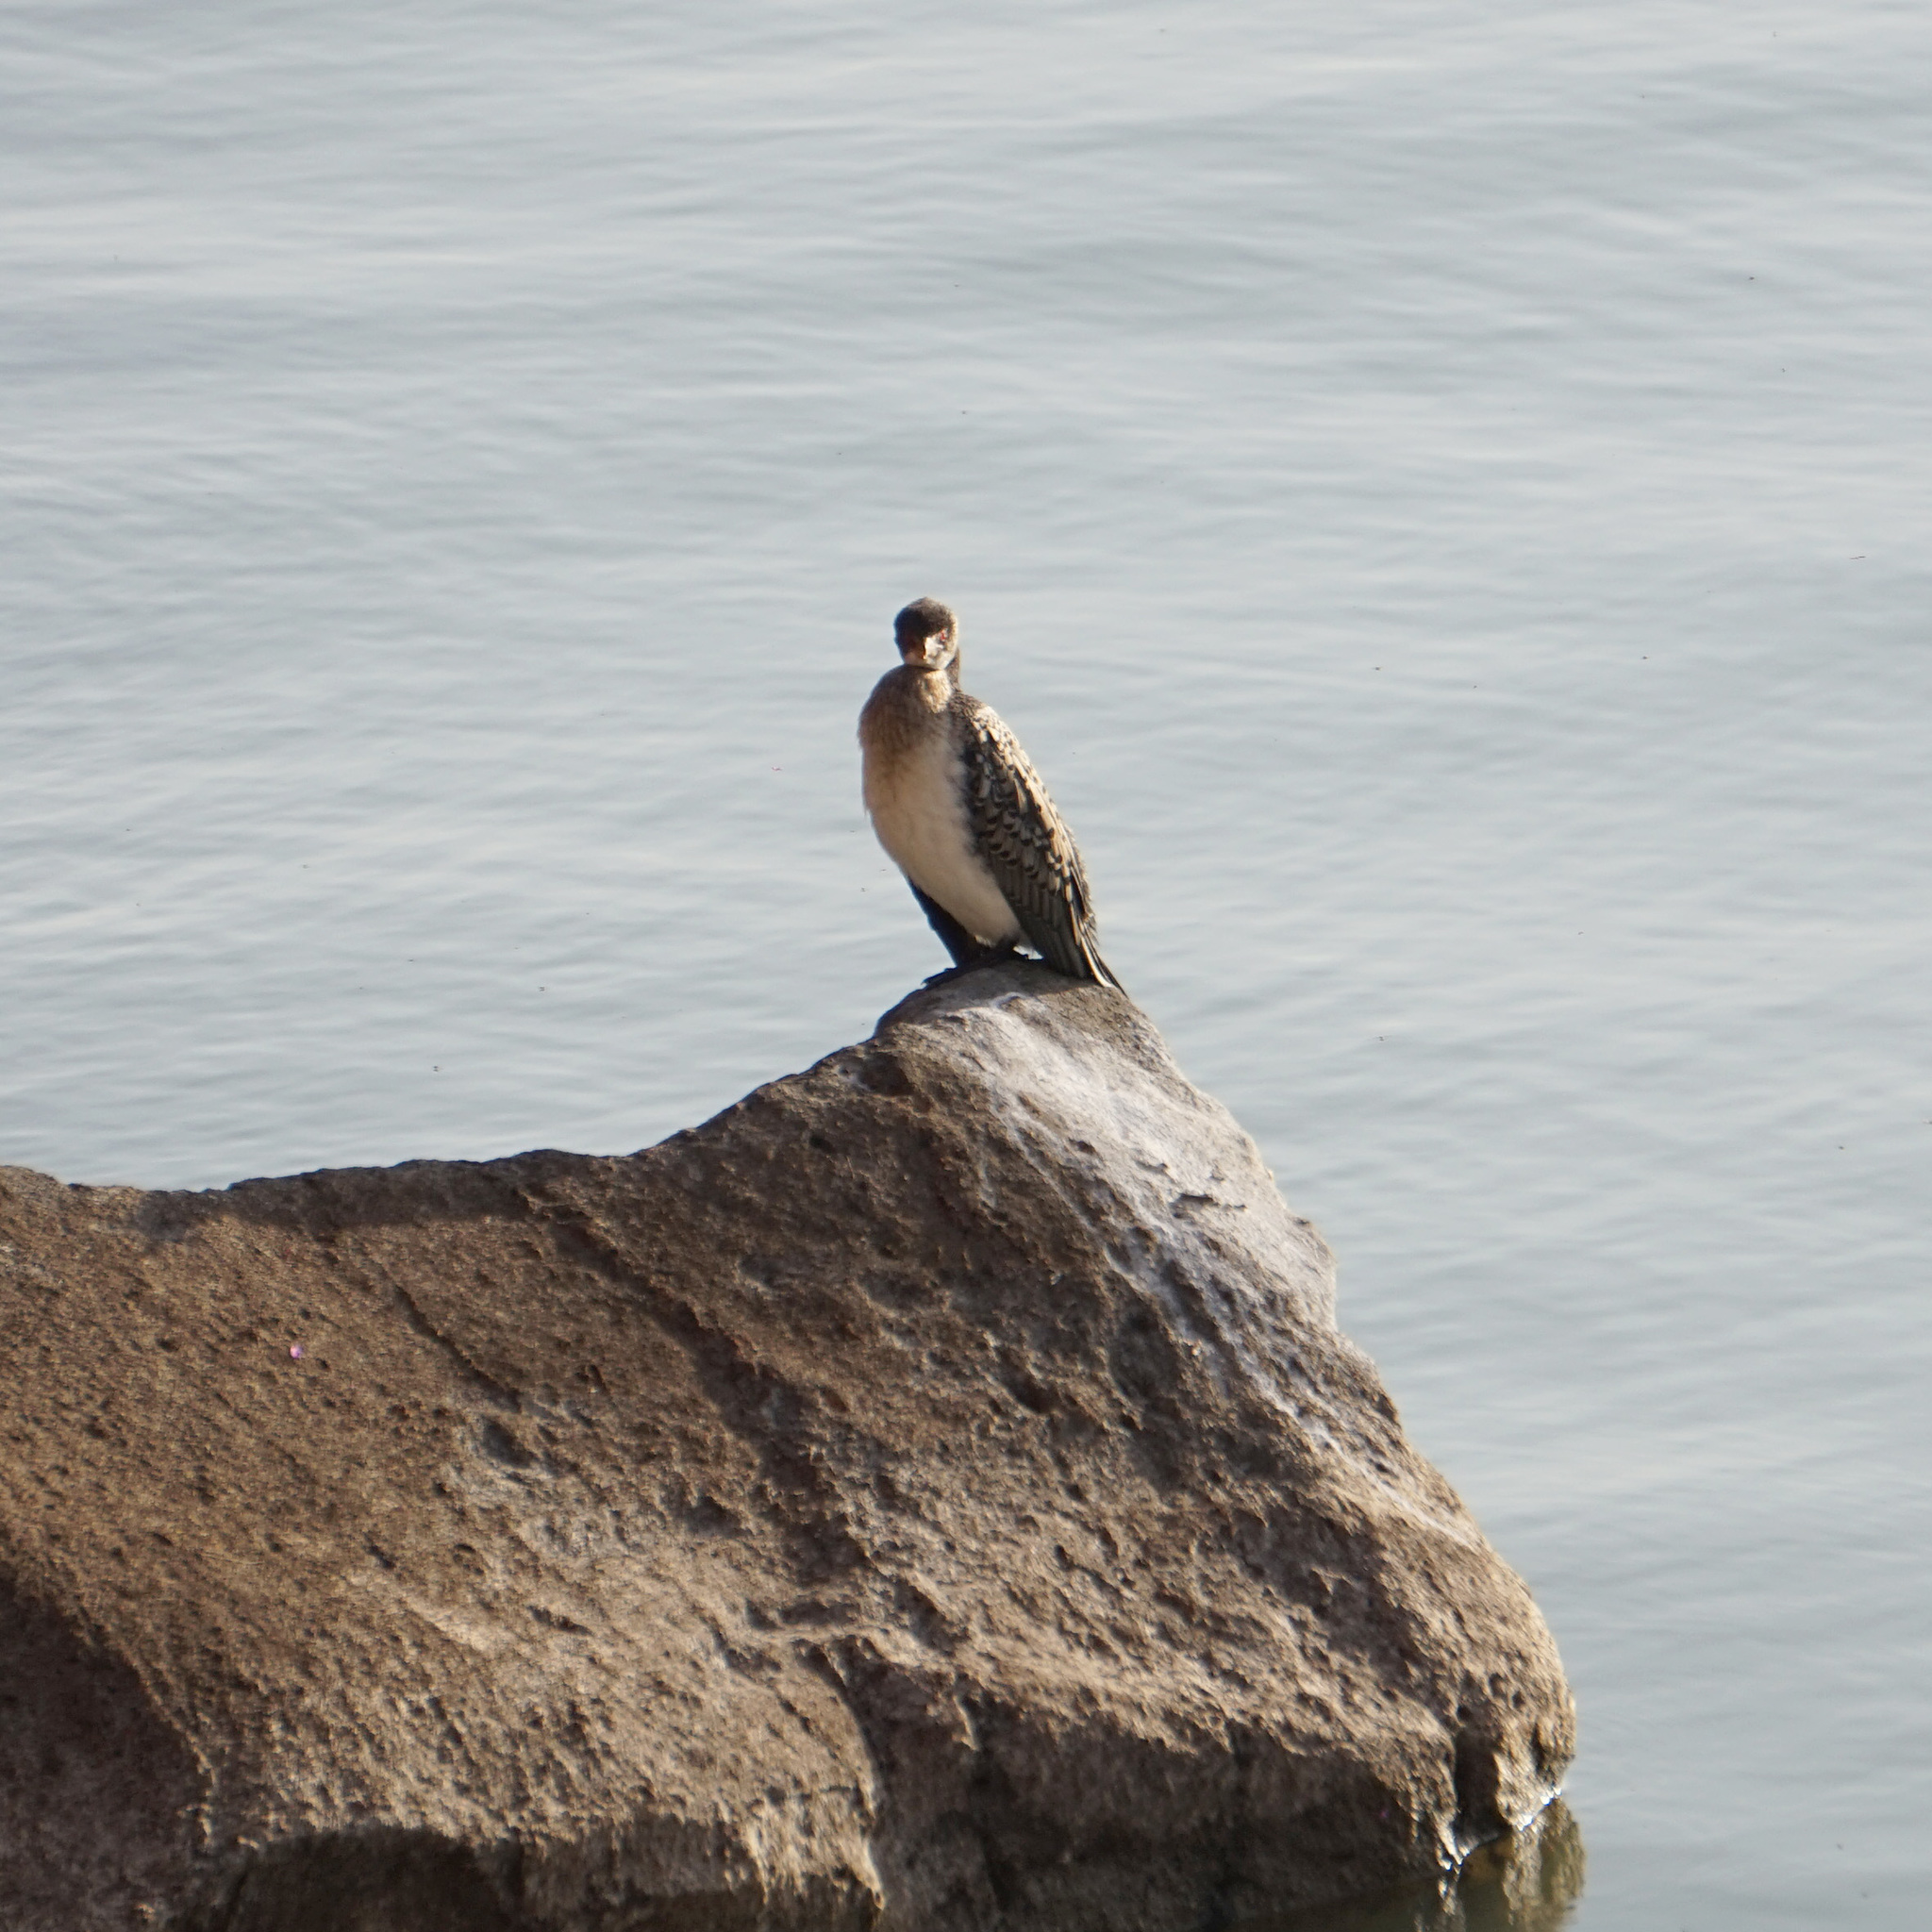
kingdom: Animalia
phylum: Chordata
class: Aves
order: Suliformes
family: Phalacrocoracidae
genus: Microcarbo
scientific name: Microcarbo africanus
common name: Long-tailed cormorant
